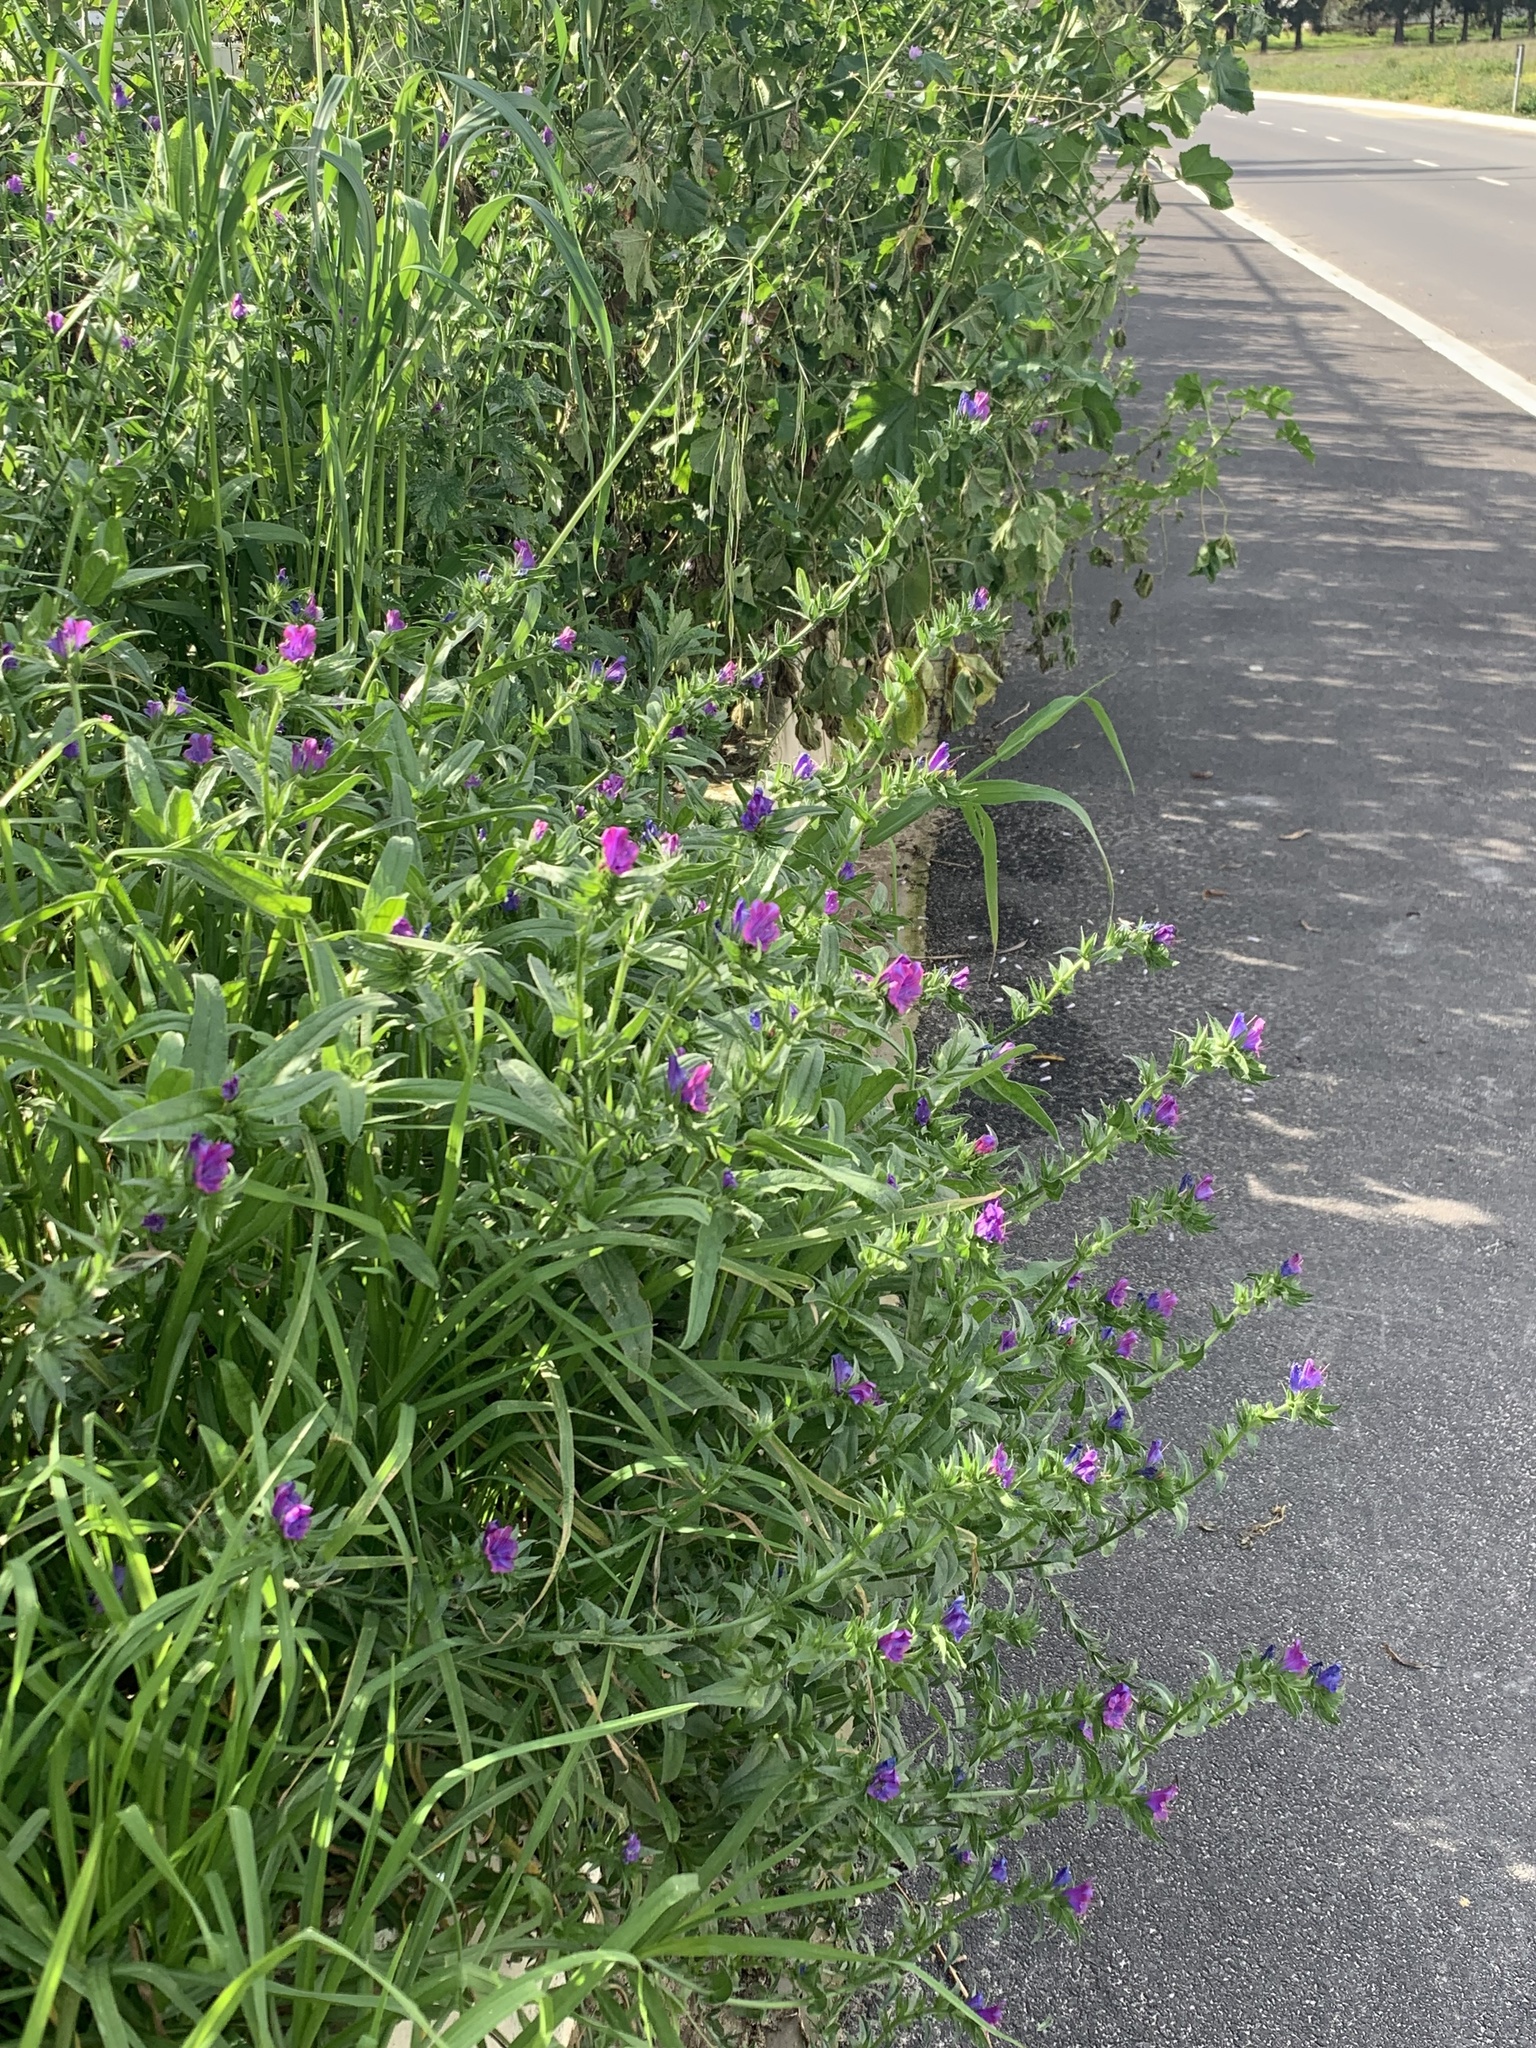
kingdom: Plantae
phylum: Tracheophyta
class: Magnoliopsida
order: Boraginales
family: Boraginaceae
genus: Echium
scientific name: Echium plantagineum
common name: Purple viper's-bugloss
